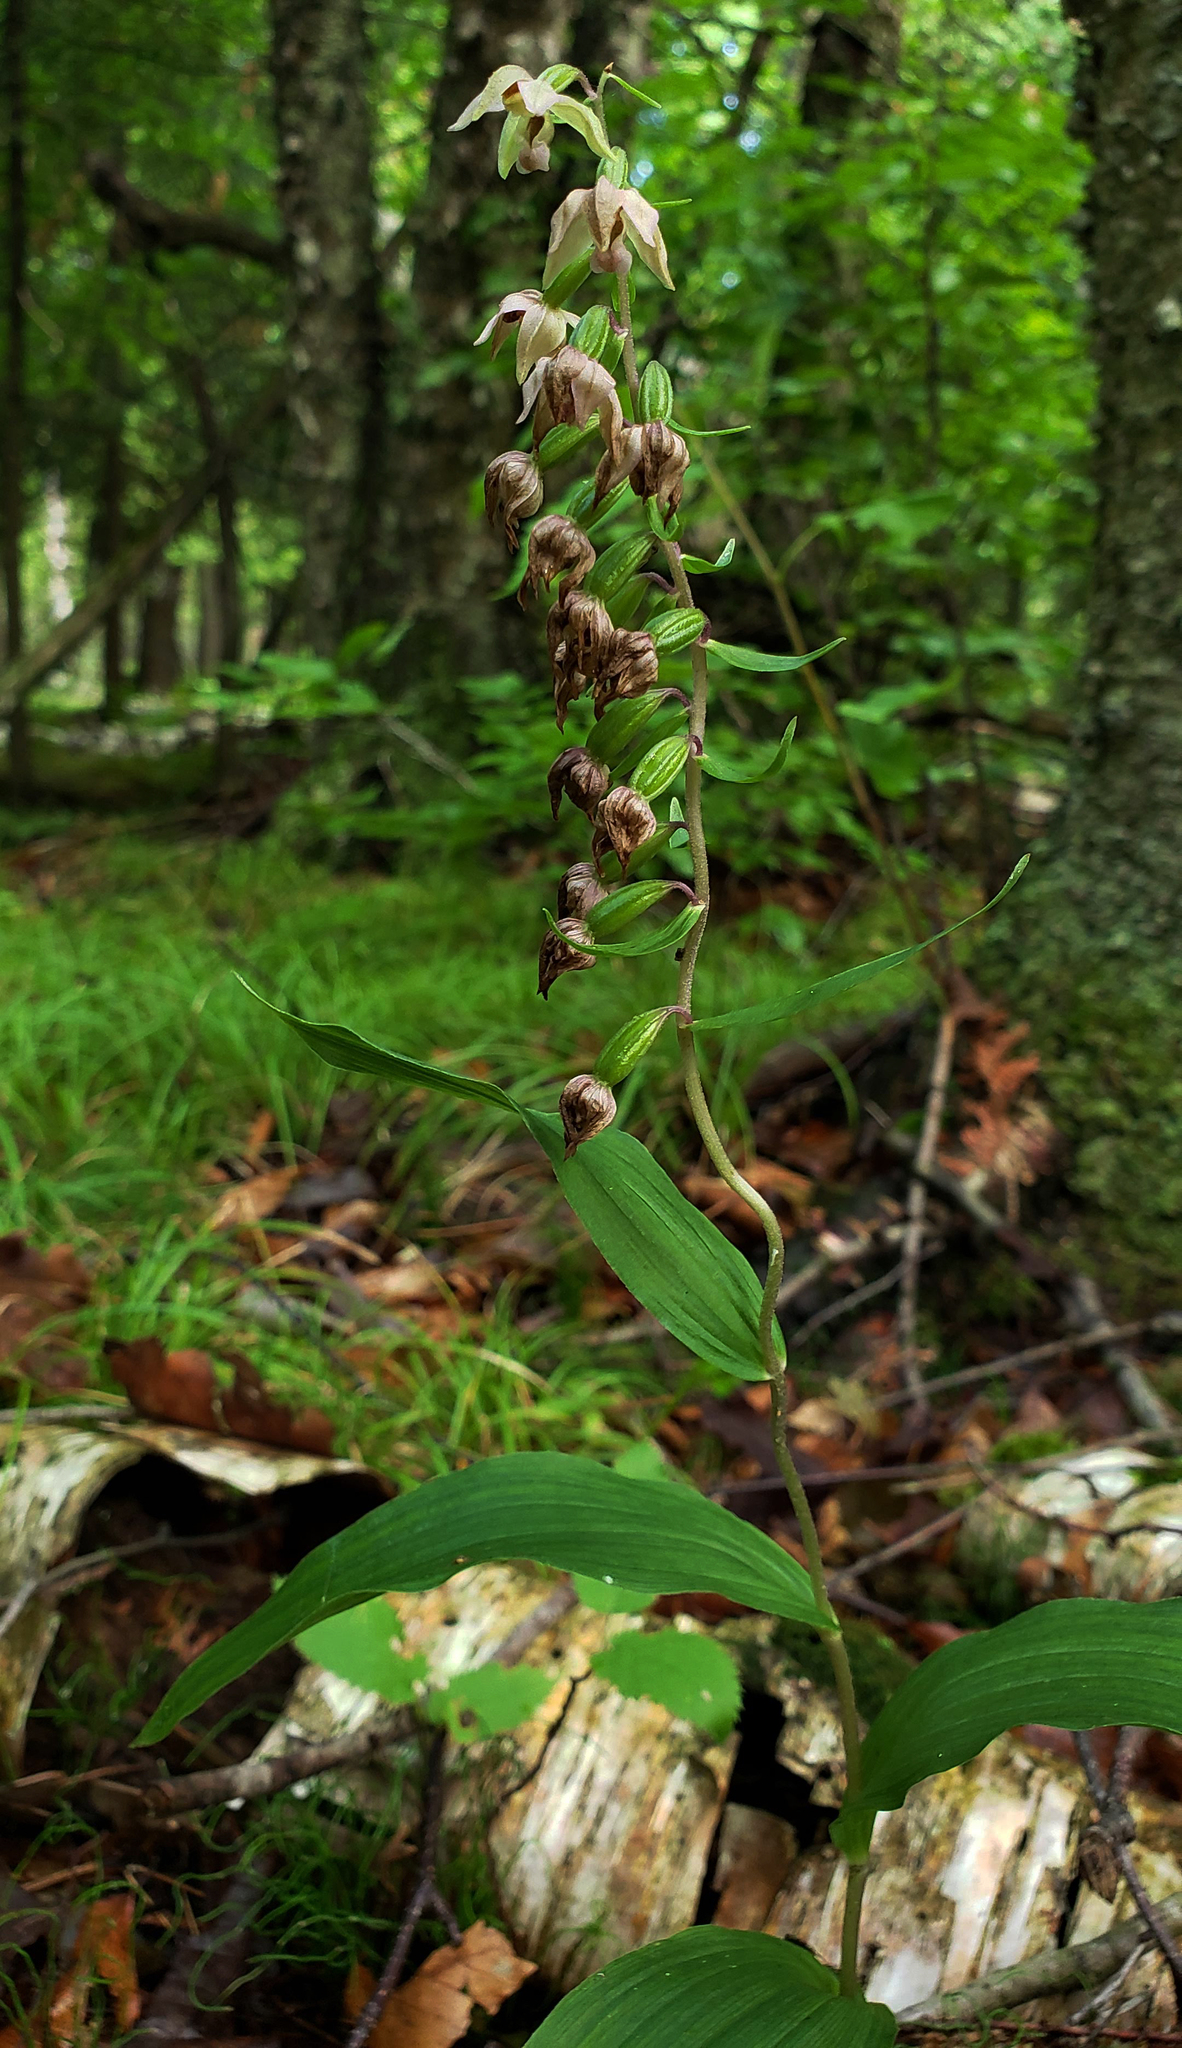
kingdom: Plantae
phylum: Tracheophyta
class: Liliopsida
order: Asparagales
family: Orchidaceae
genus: Epipactis
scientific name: Epipactis helleborine
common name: Broad-leaved helleborine
